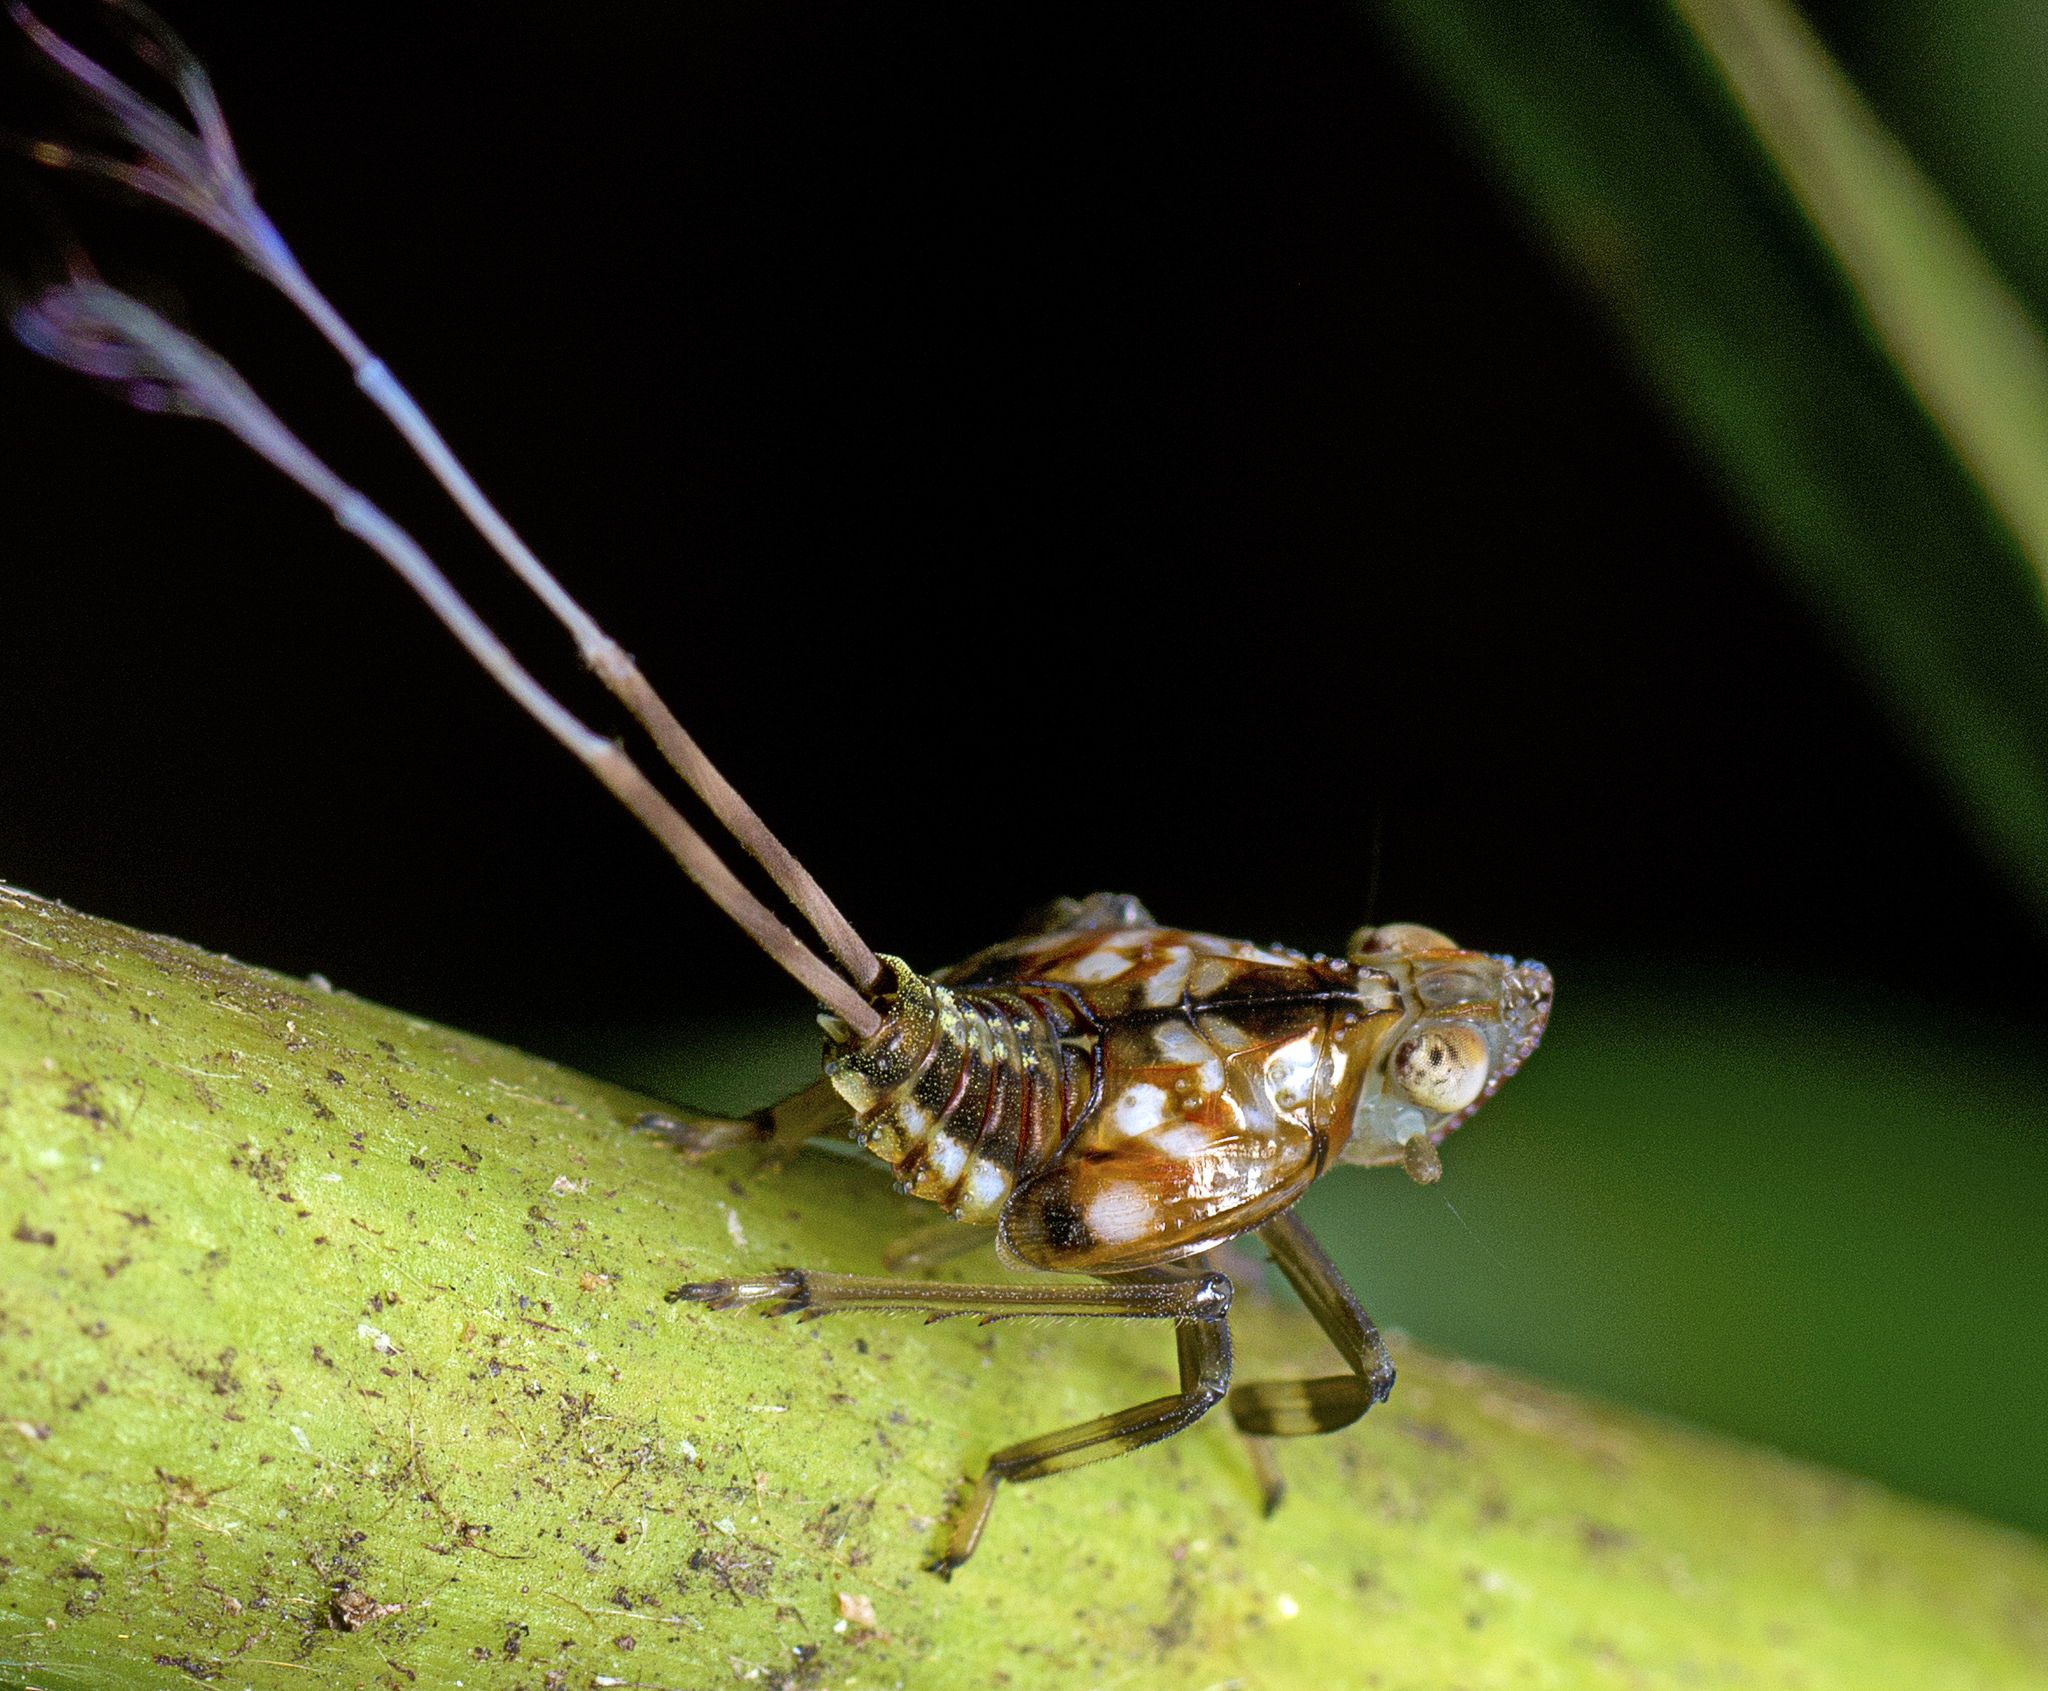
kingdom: Animalia
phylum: Arthropoda
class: Insecta
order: Hemiptera
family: Lophopidae
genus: Magia
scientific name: Magia subocellata
